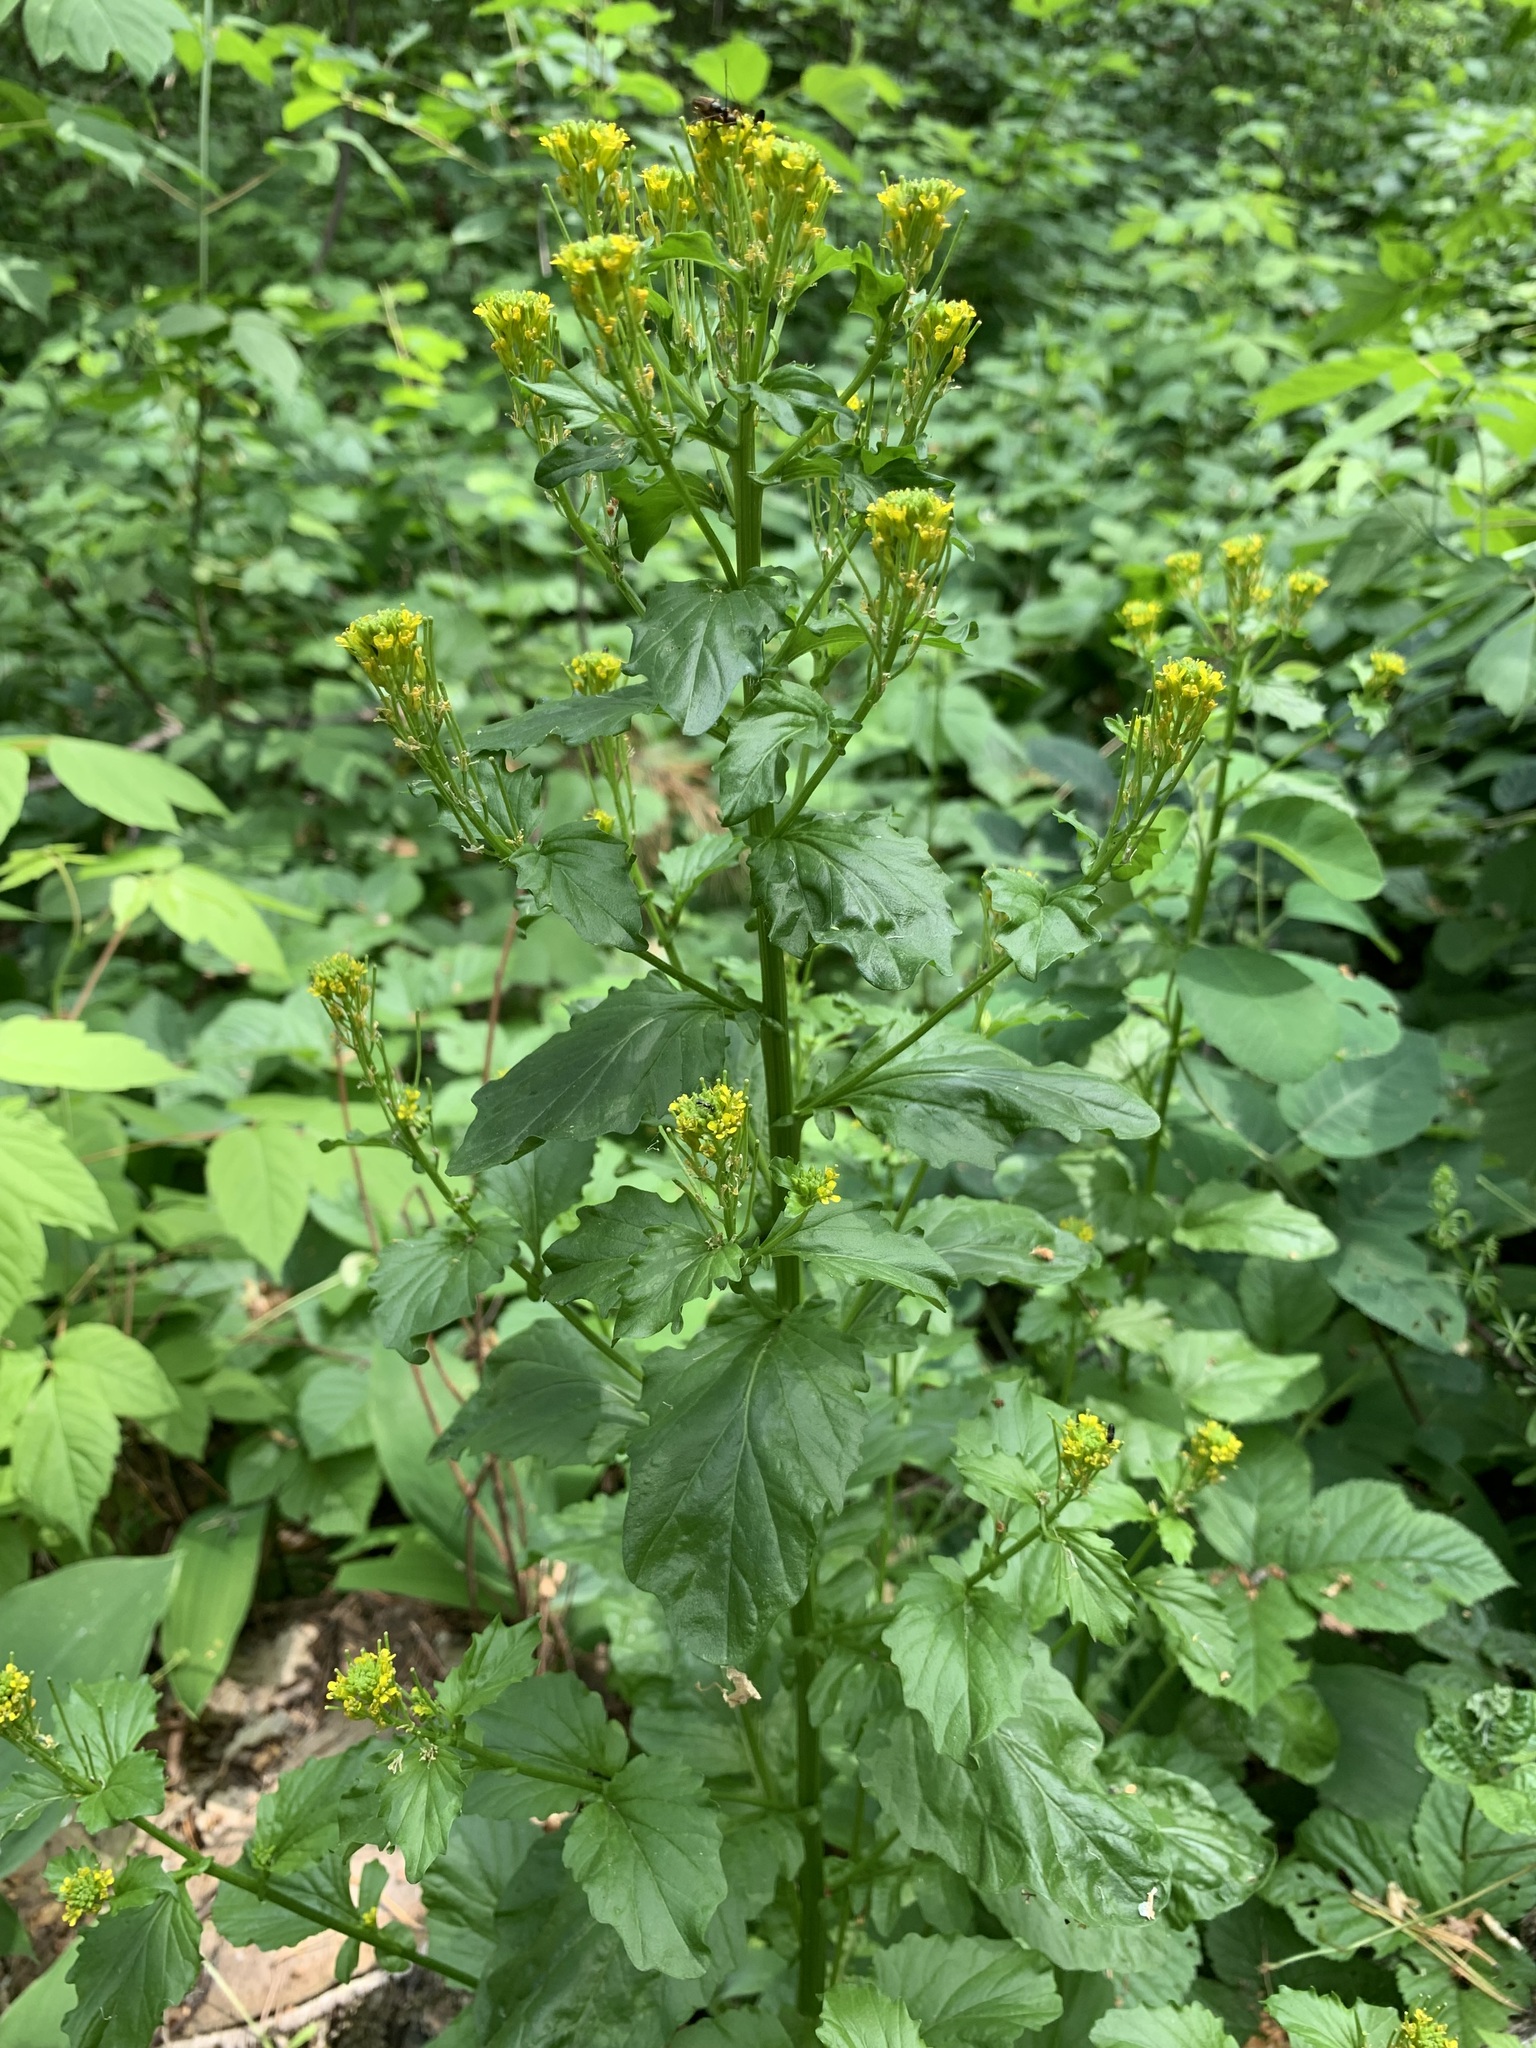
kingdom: Plantae
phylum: Tracheophyta
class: Magnoliopsida
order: Brassicales
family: Brassicaceae
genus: Barbarea
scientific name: Barbarea stricta
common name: Small-flowered winter-cress
